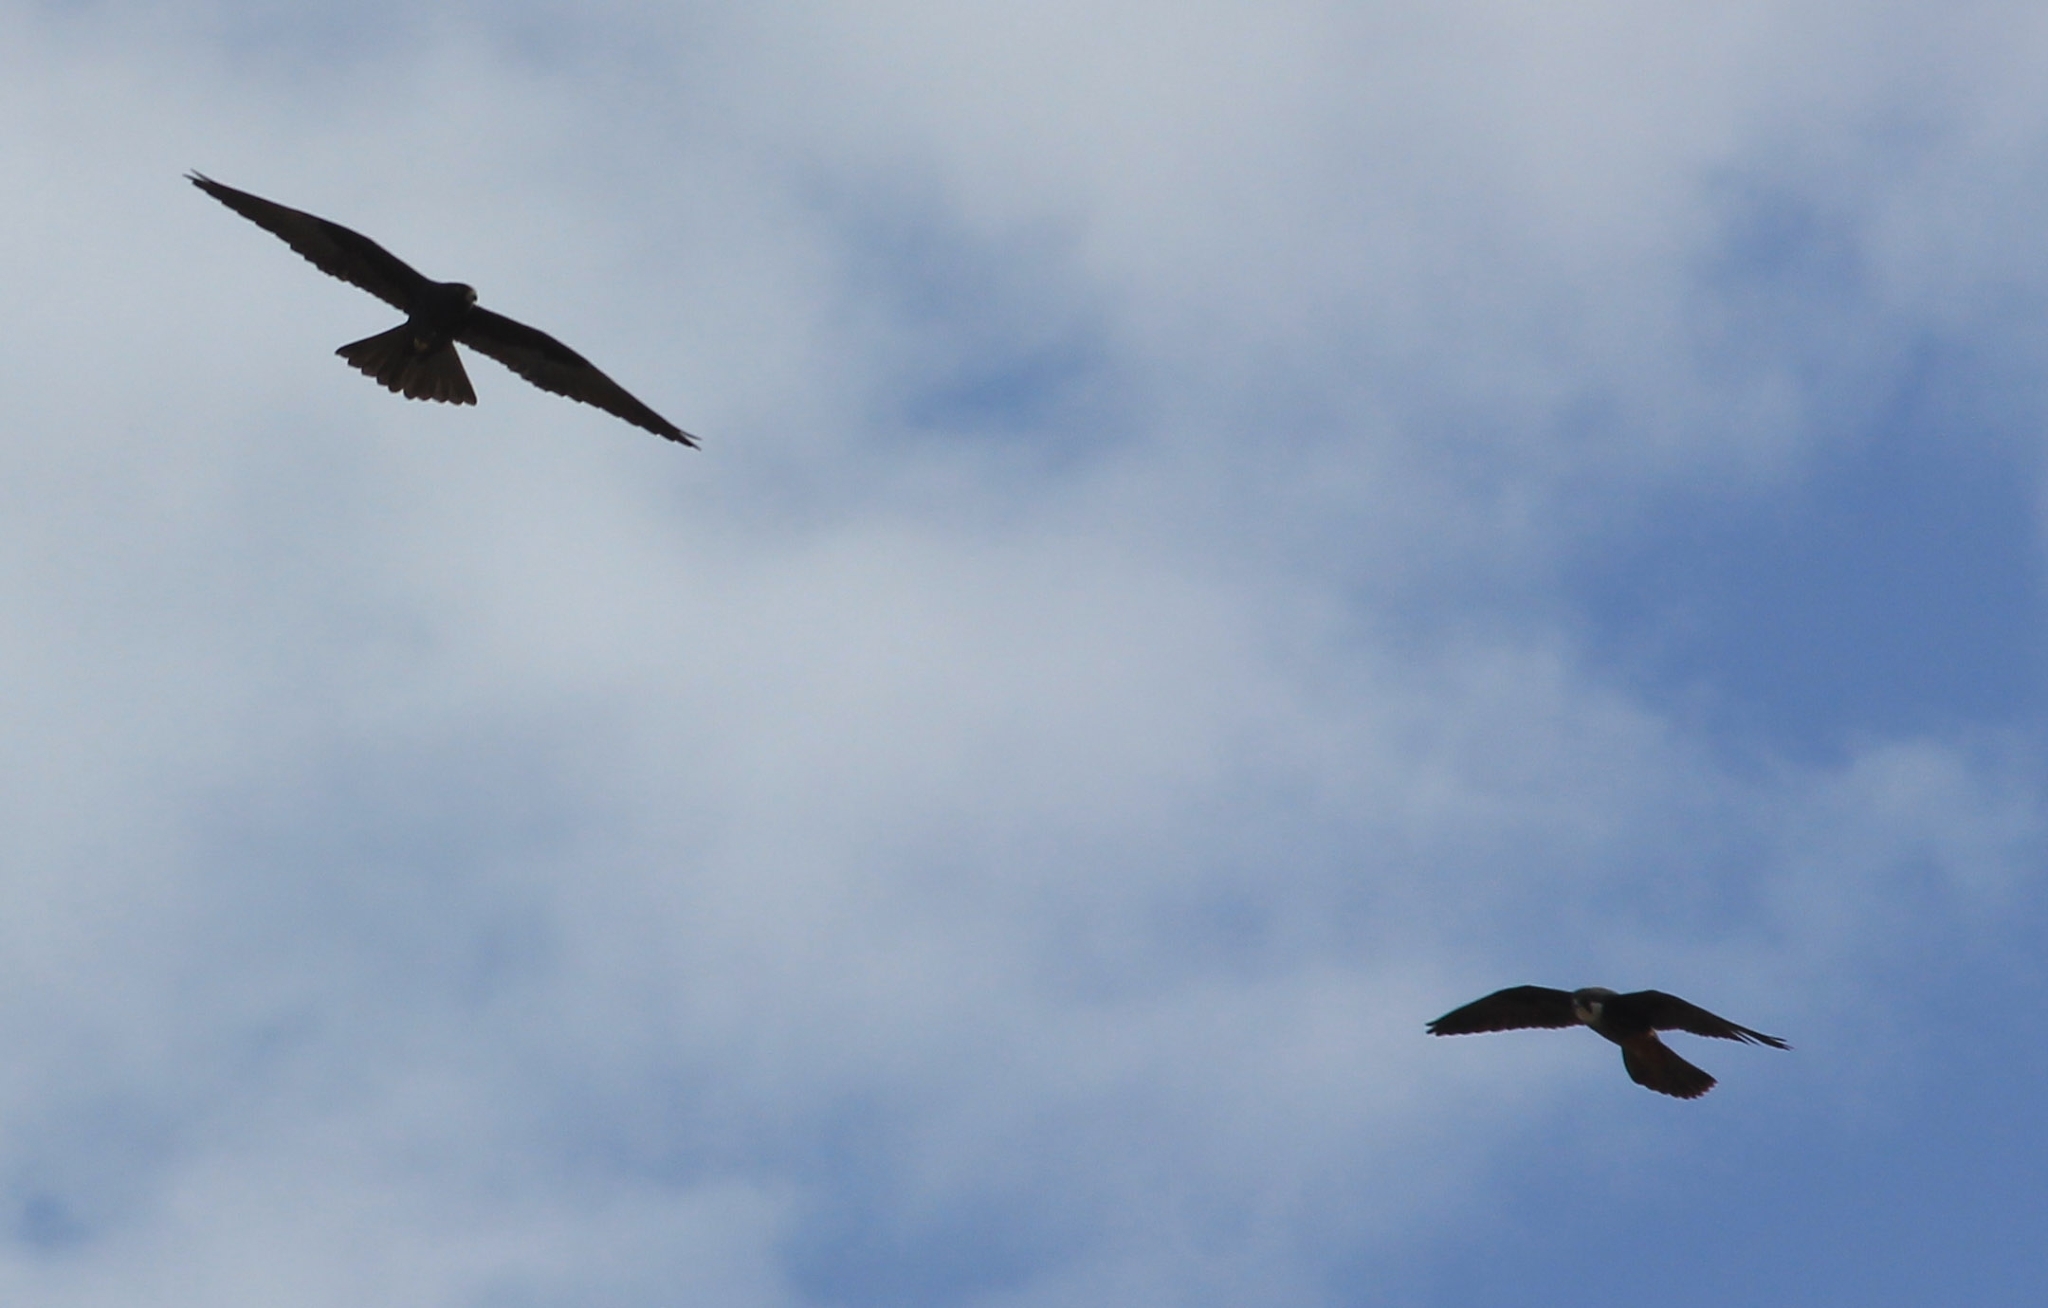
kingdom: Animalia
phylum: Chordata
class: Aves
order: Falconiformes
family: Falconidae
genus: Falco
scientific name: Falco eleonorae
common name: Eleonora's falcon
